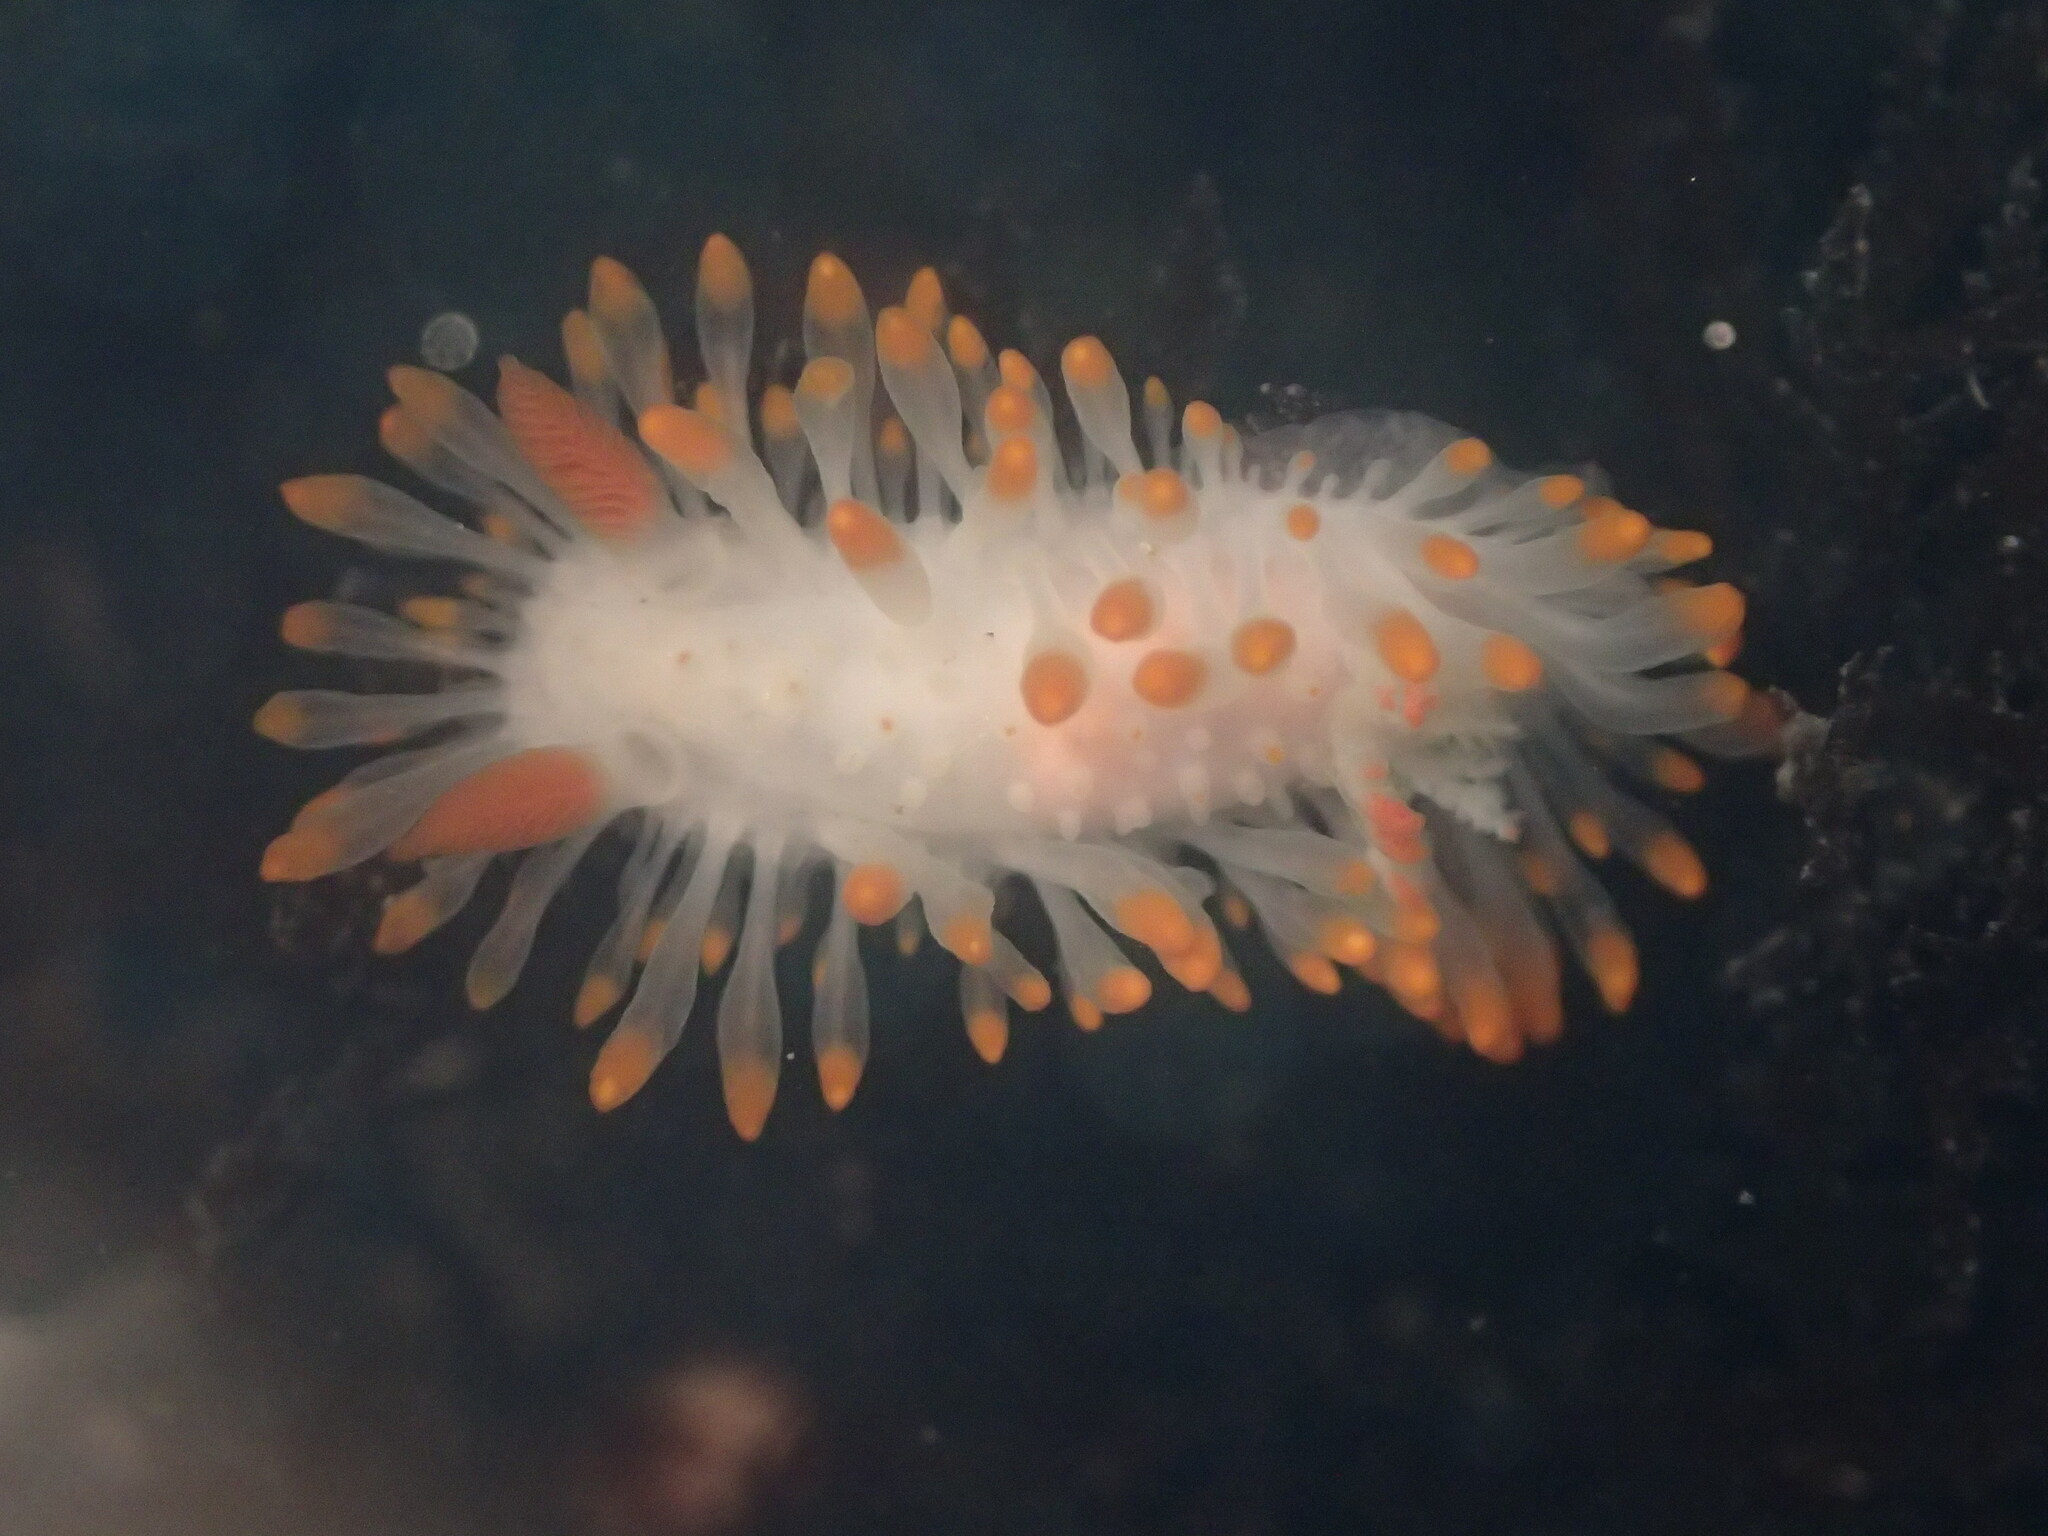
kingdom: Animalia
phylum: Mollusca
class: Gastropoda
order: Nudibranchia
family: Polyceridae
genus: Limacia
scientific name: Limacia cockerelli
